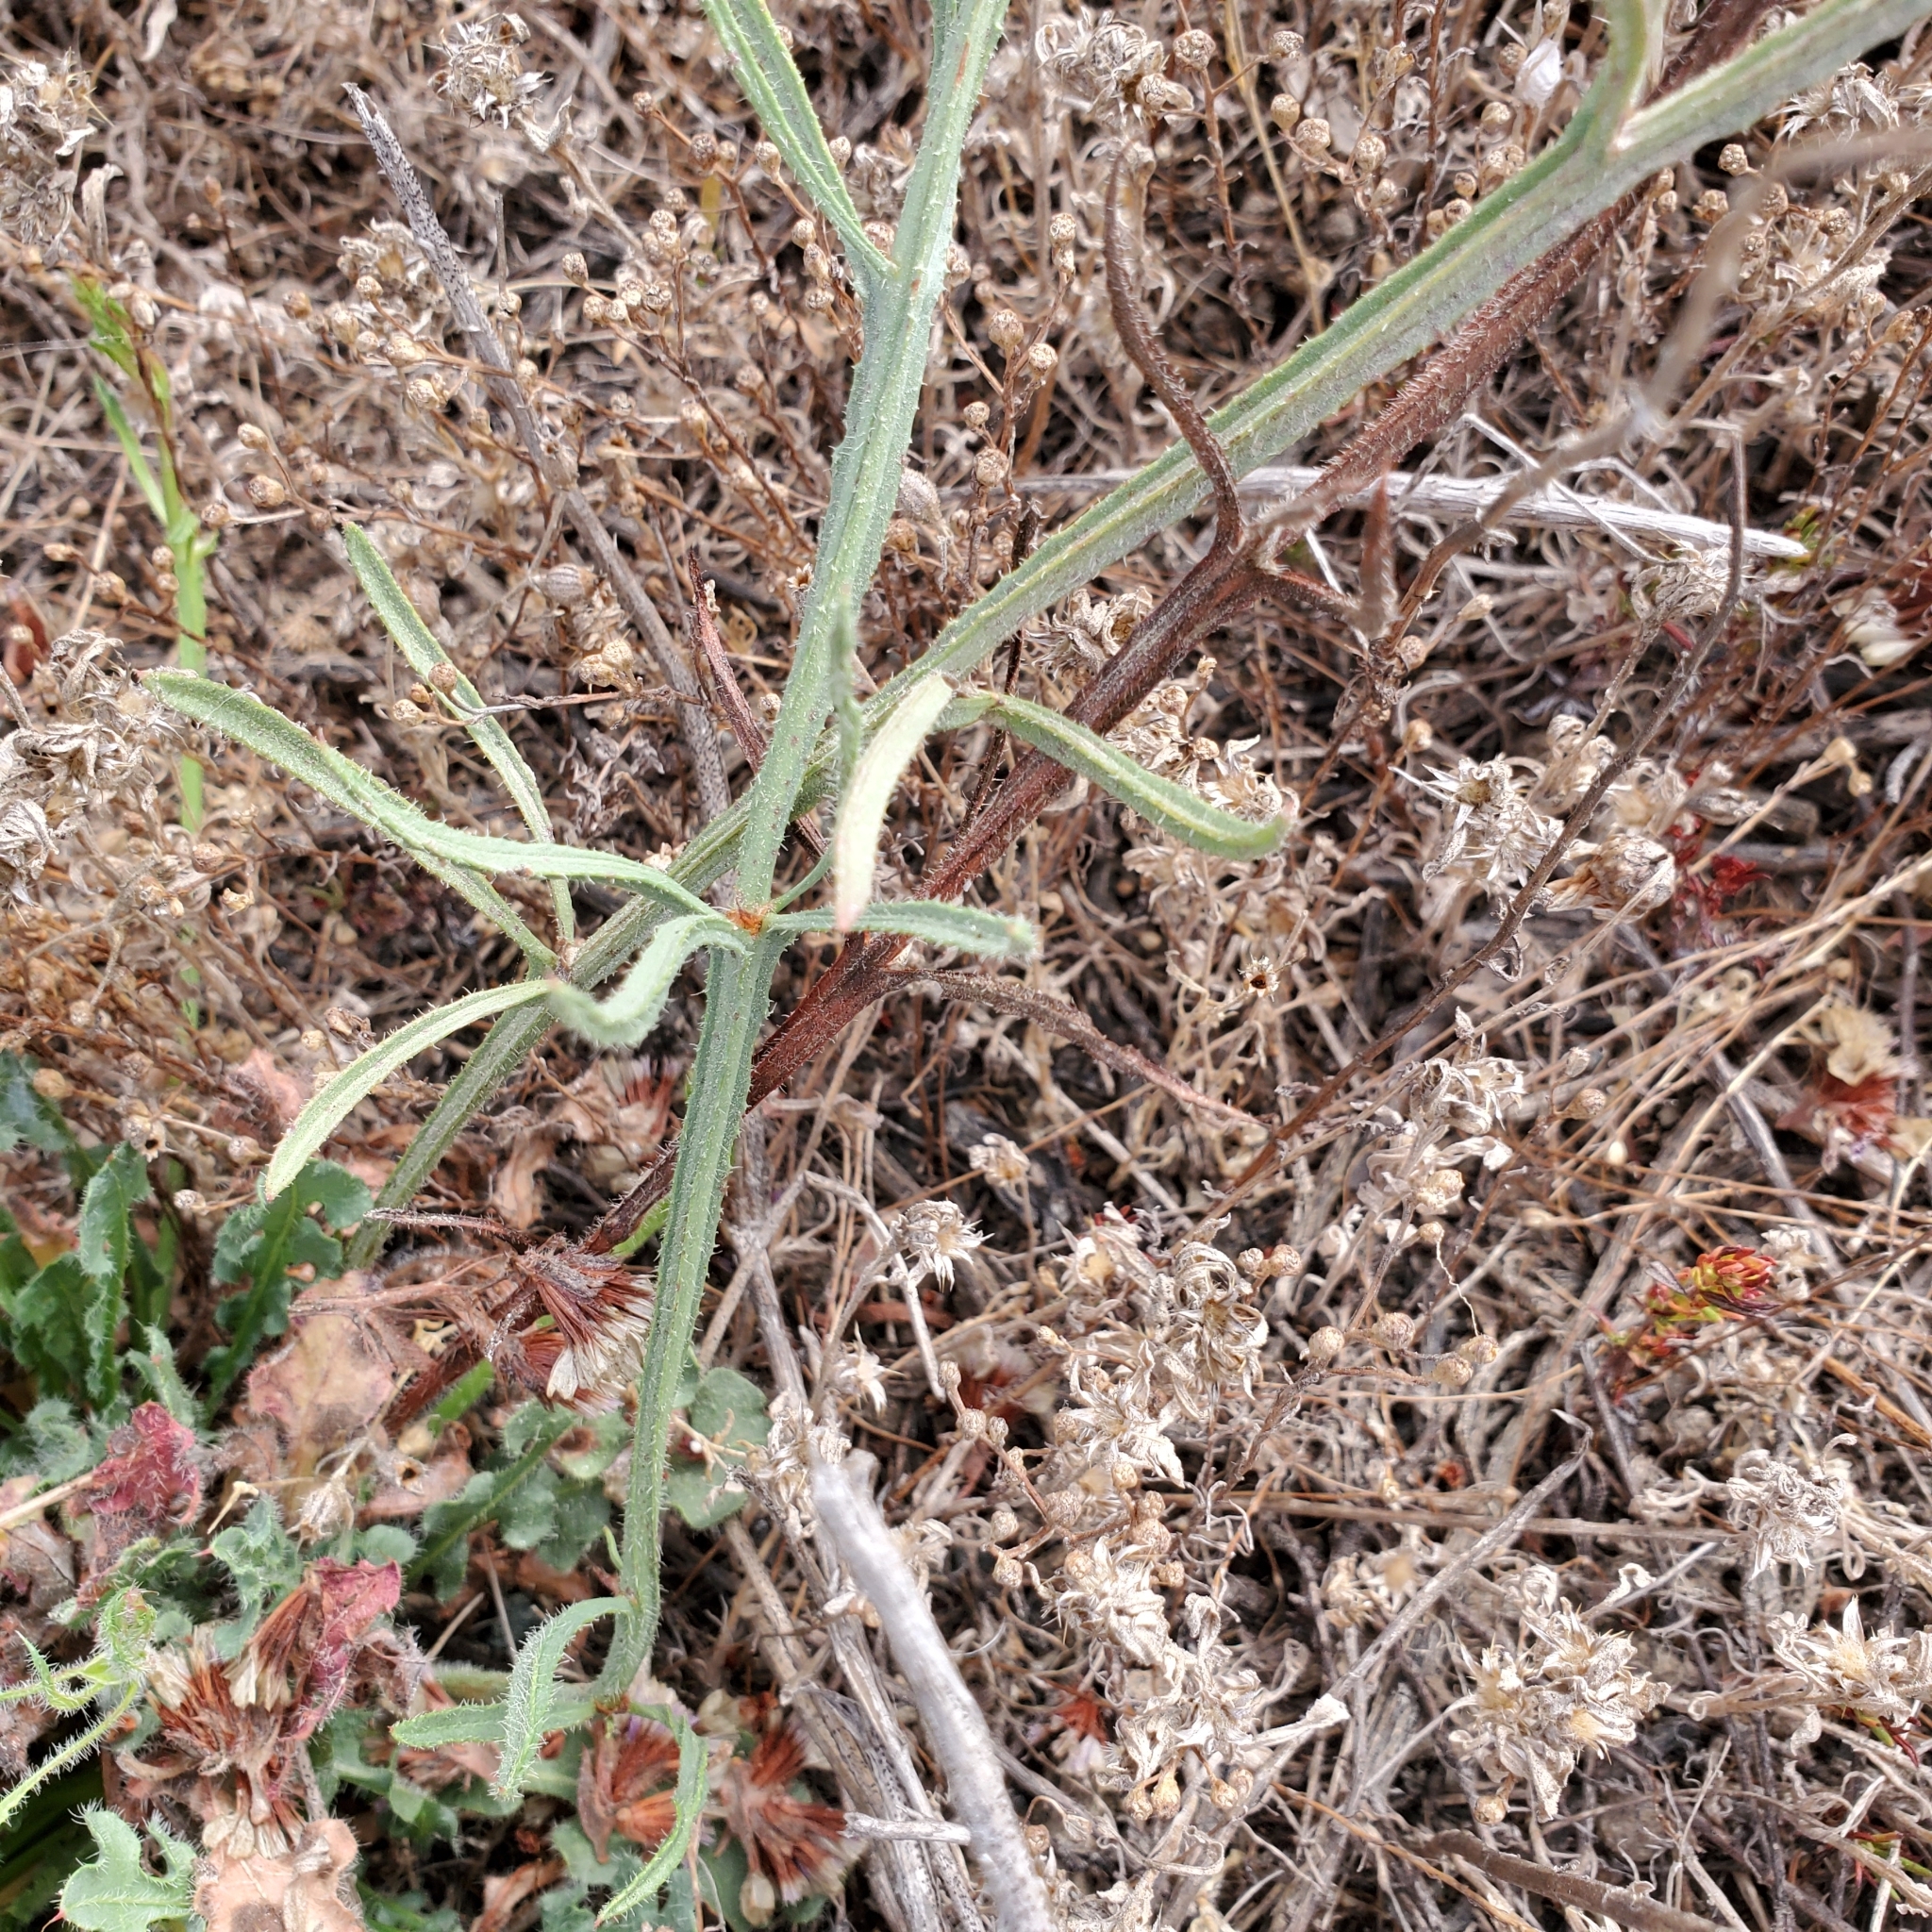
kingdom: Plantae
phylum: Tracheophyta
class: Magnoliopsida
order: Caryophyllales
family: Plumbaginaceae
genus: Limonium
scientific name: Limonium sinuatum
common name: Statice
